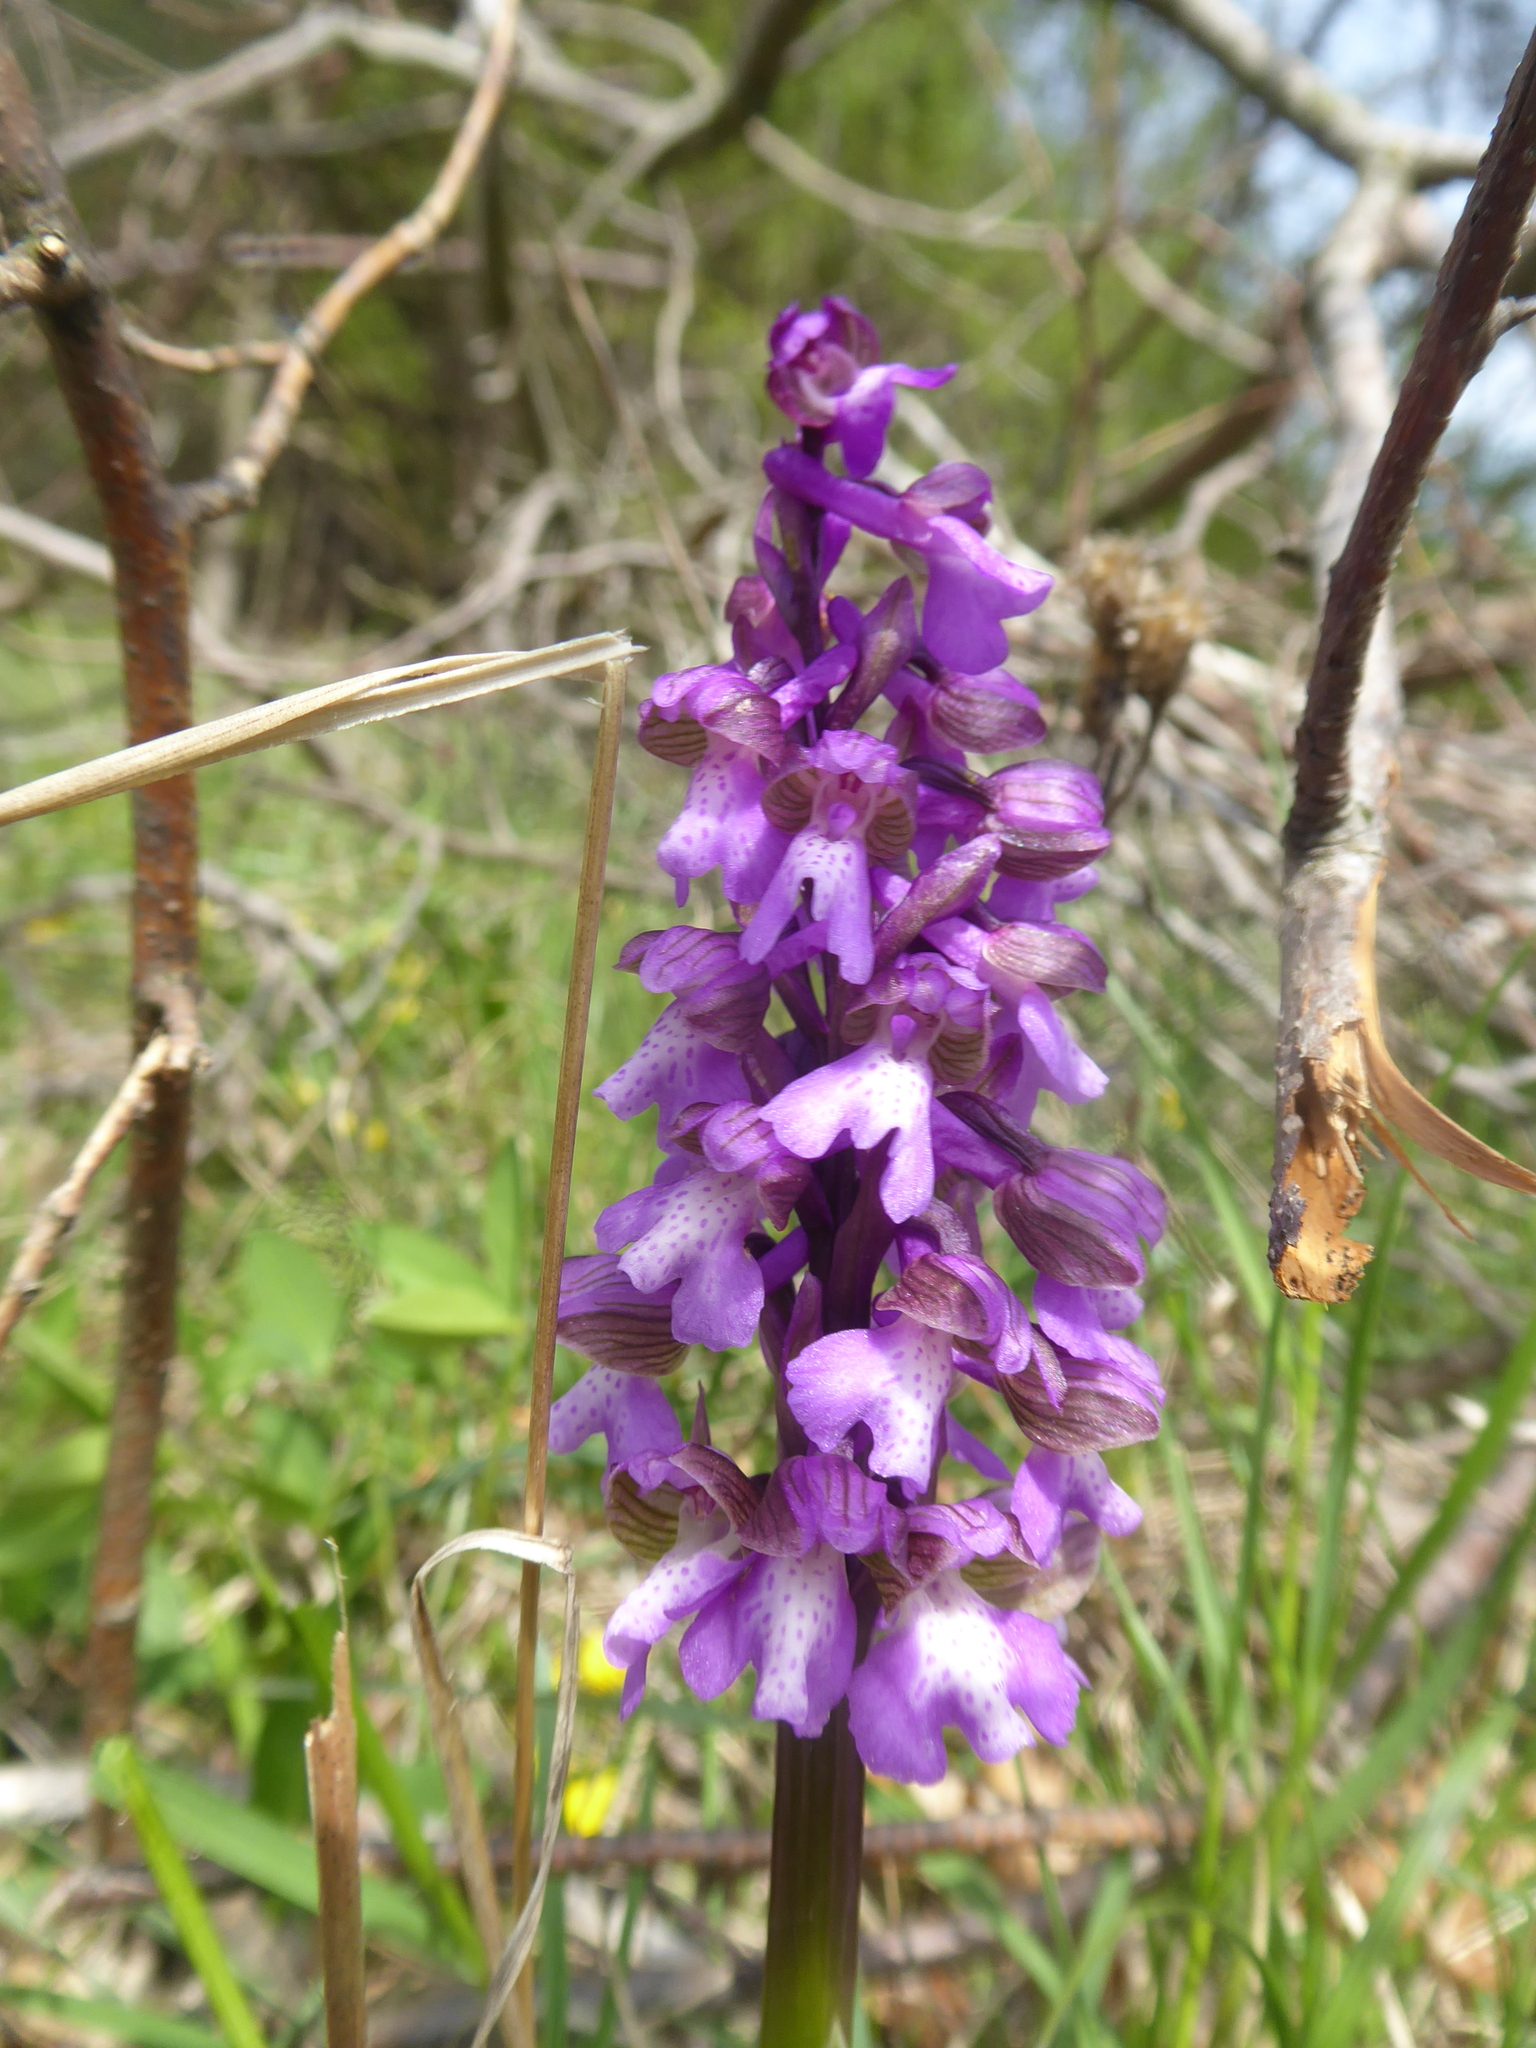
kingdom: Plantae
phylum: Tracheophyta
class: Liliopsida
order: Asparagales
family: Orchidaceae
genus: Anacamptis
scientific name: Anacamptis morio
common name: Green-winged orchid
